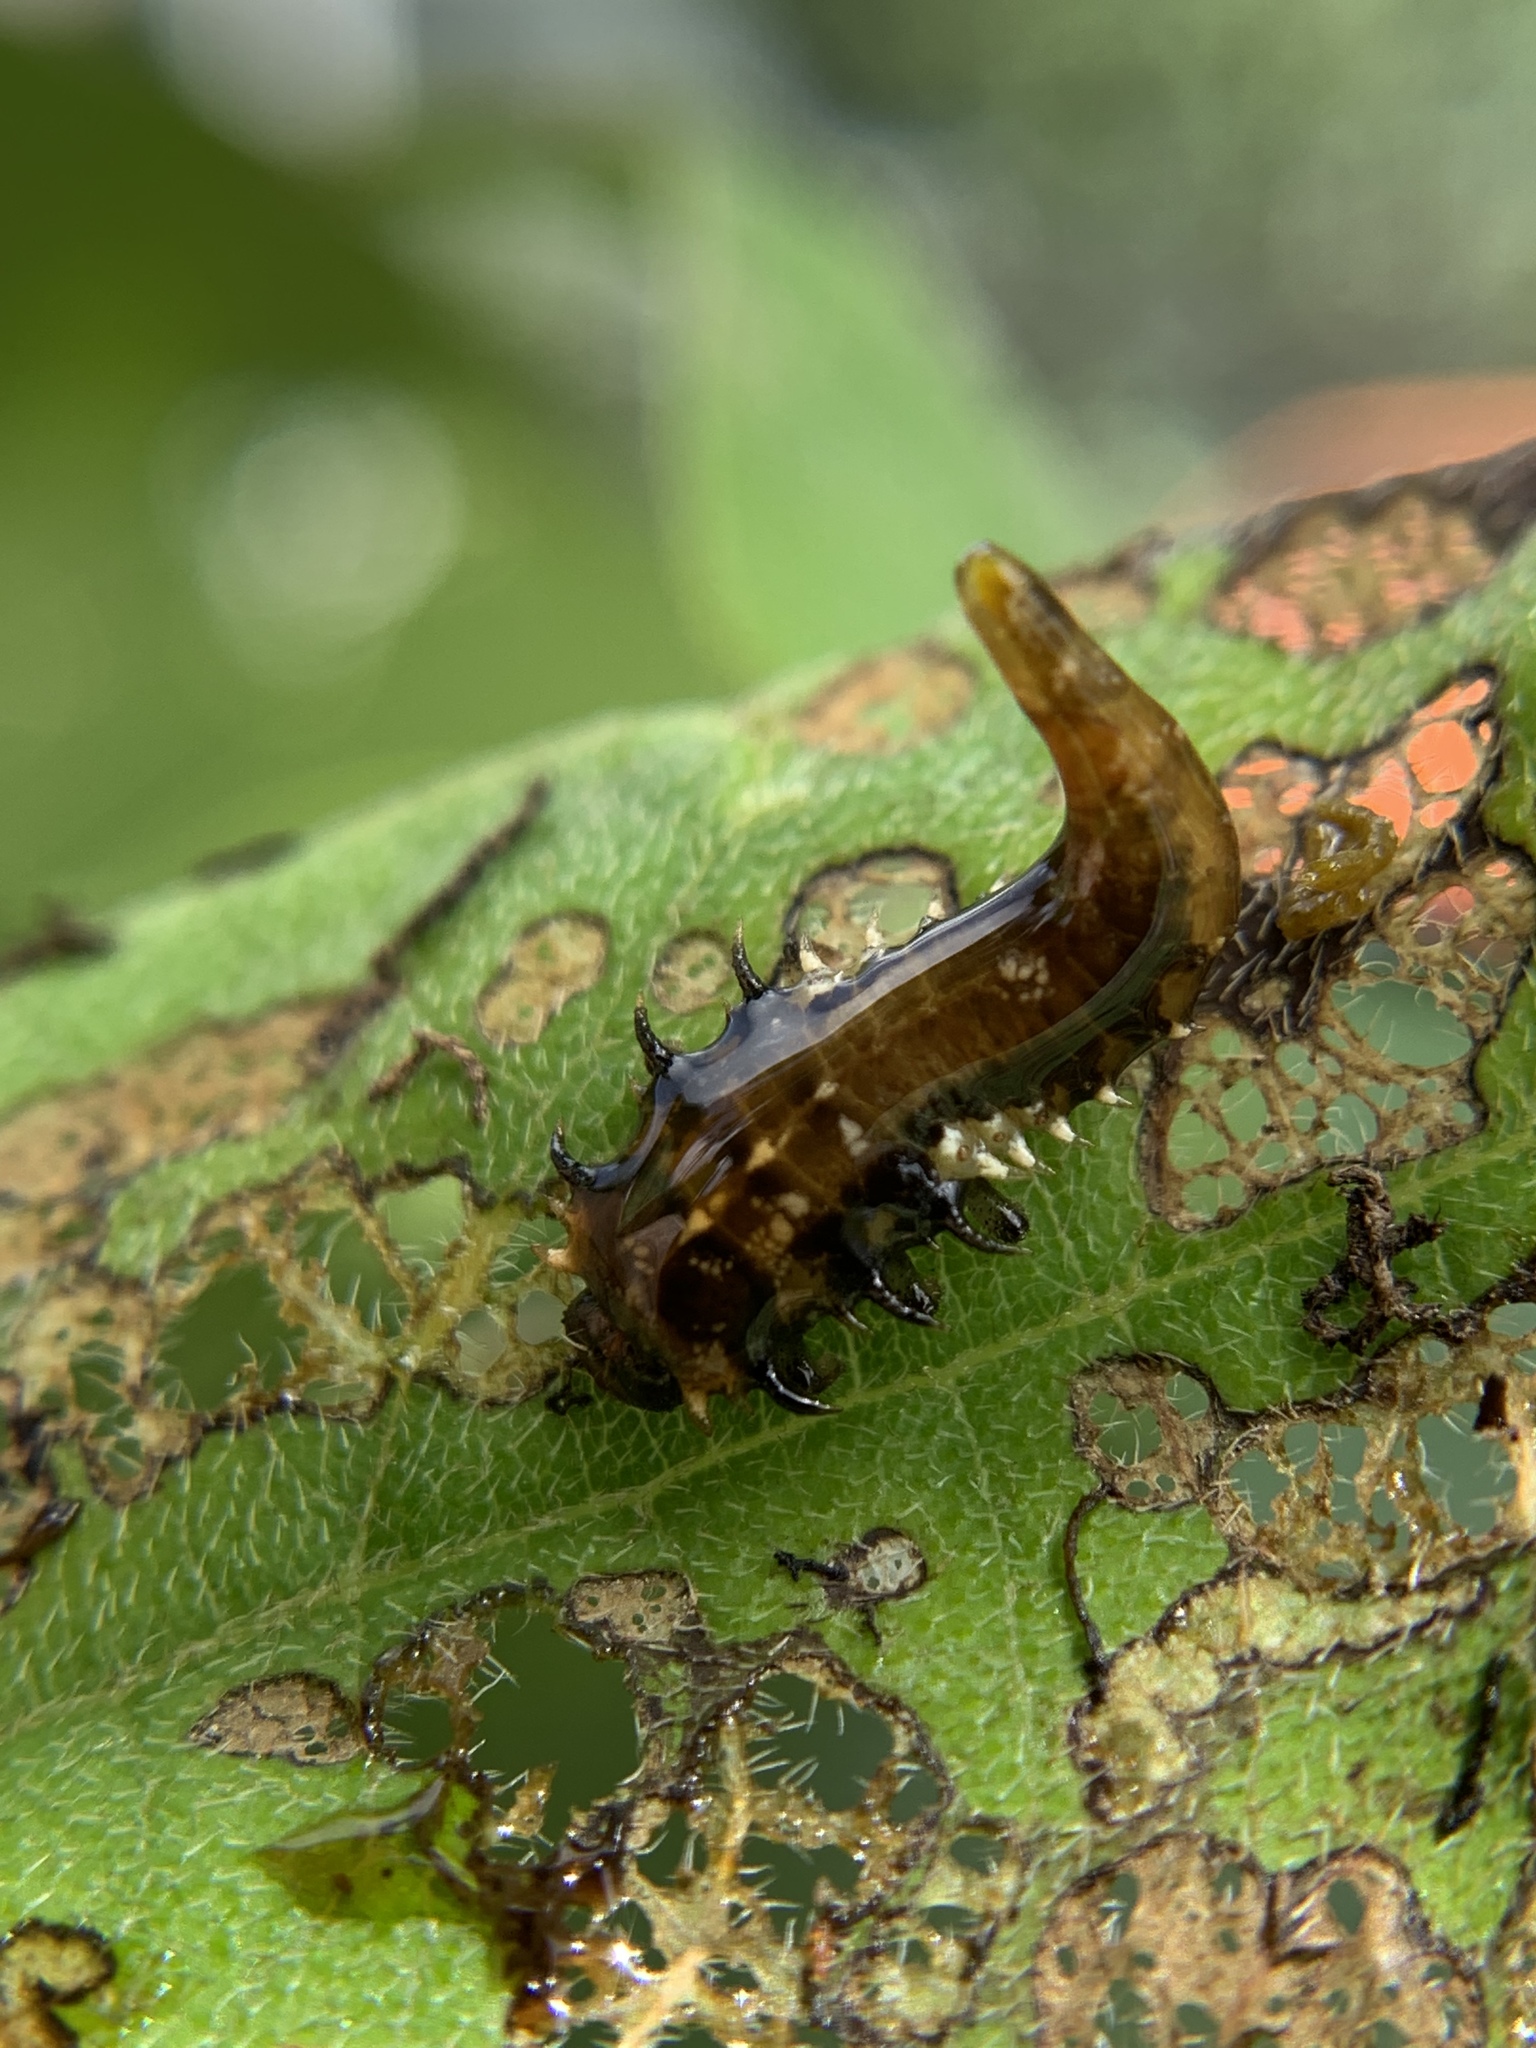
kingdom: Animalia
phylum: Arthropoda
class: Insecta
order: Coleoptera
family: Chrysomelidae
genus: Eurypepla
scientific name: Eurypepla calochroma
